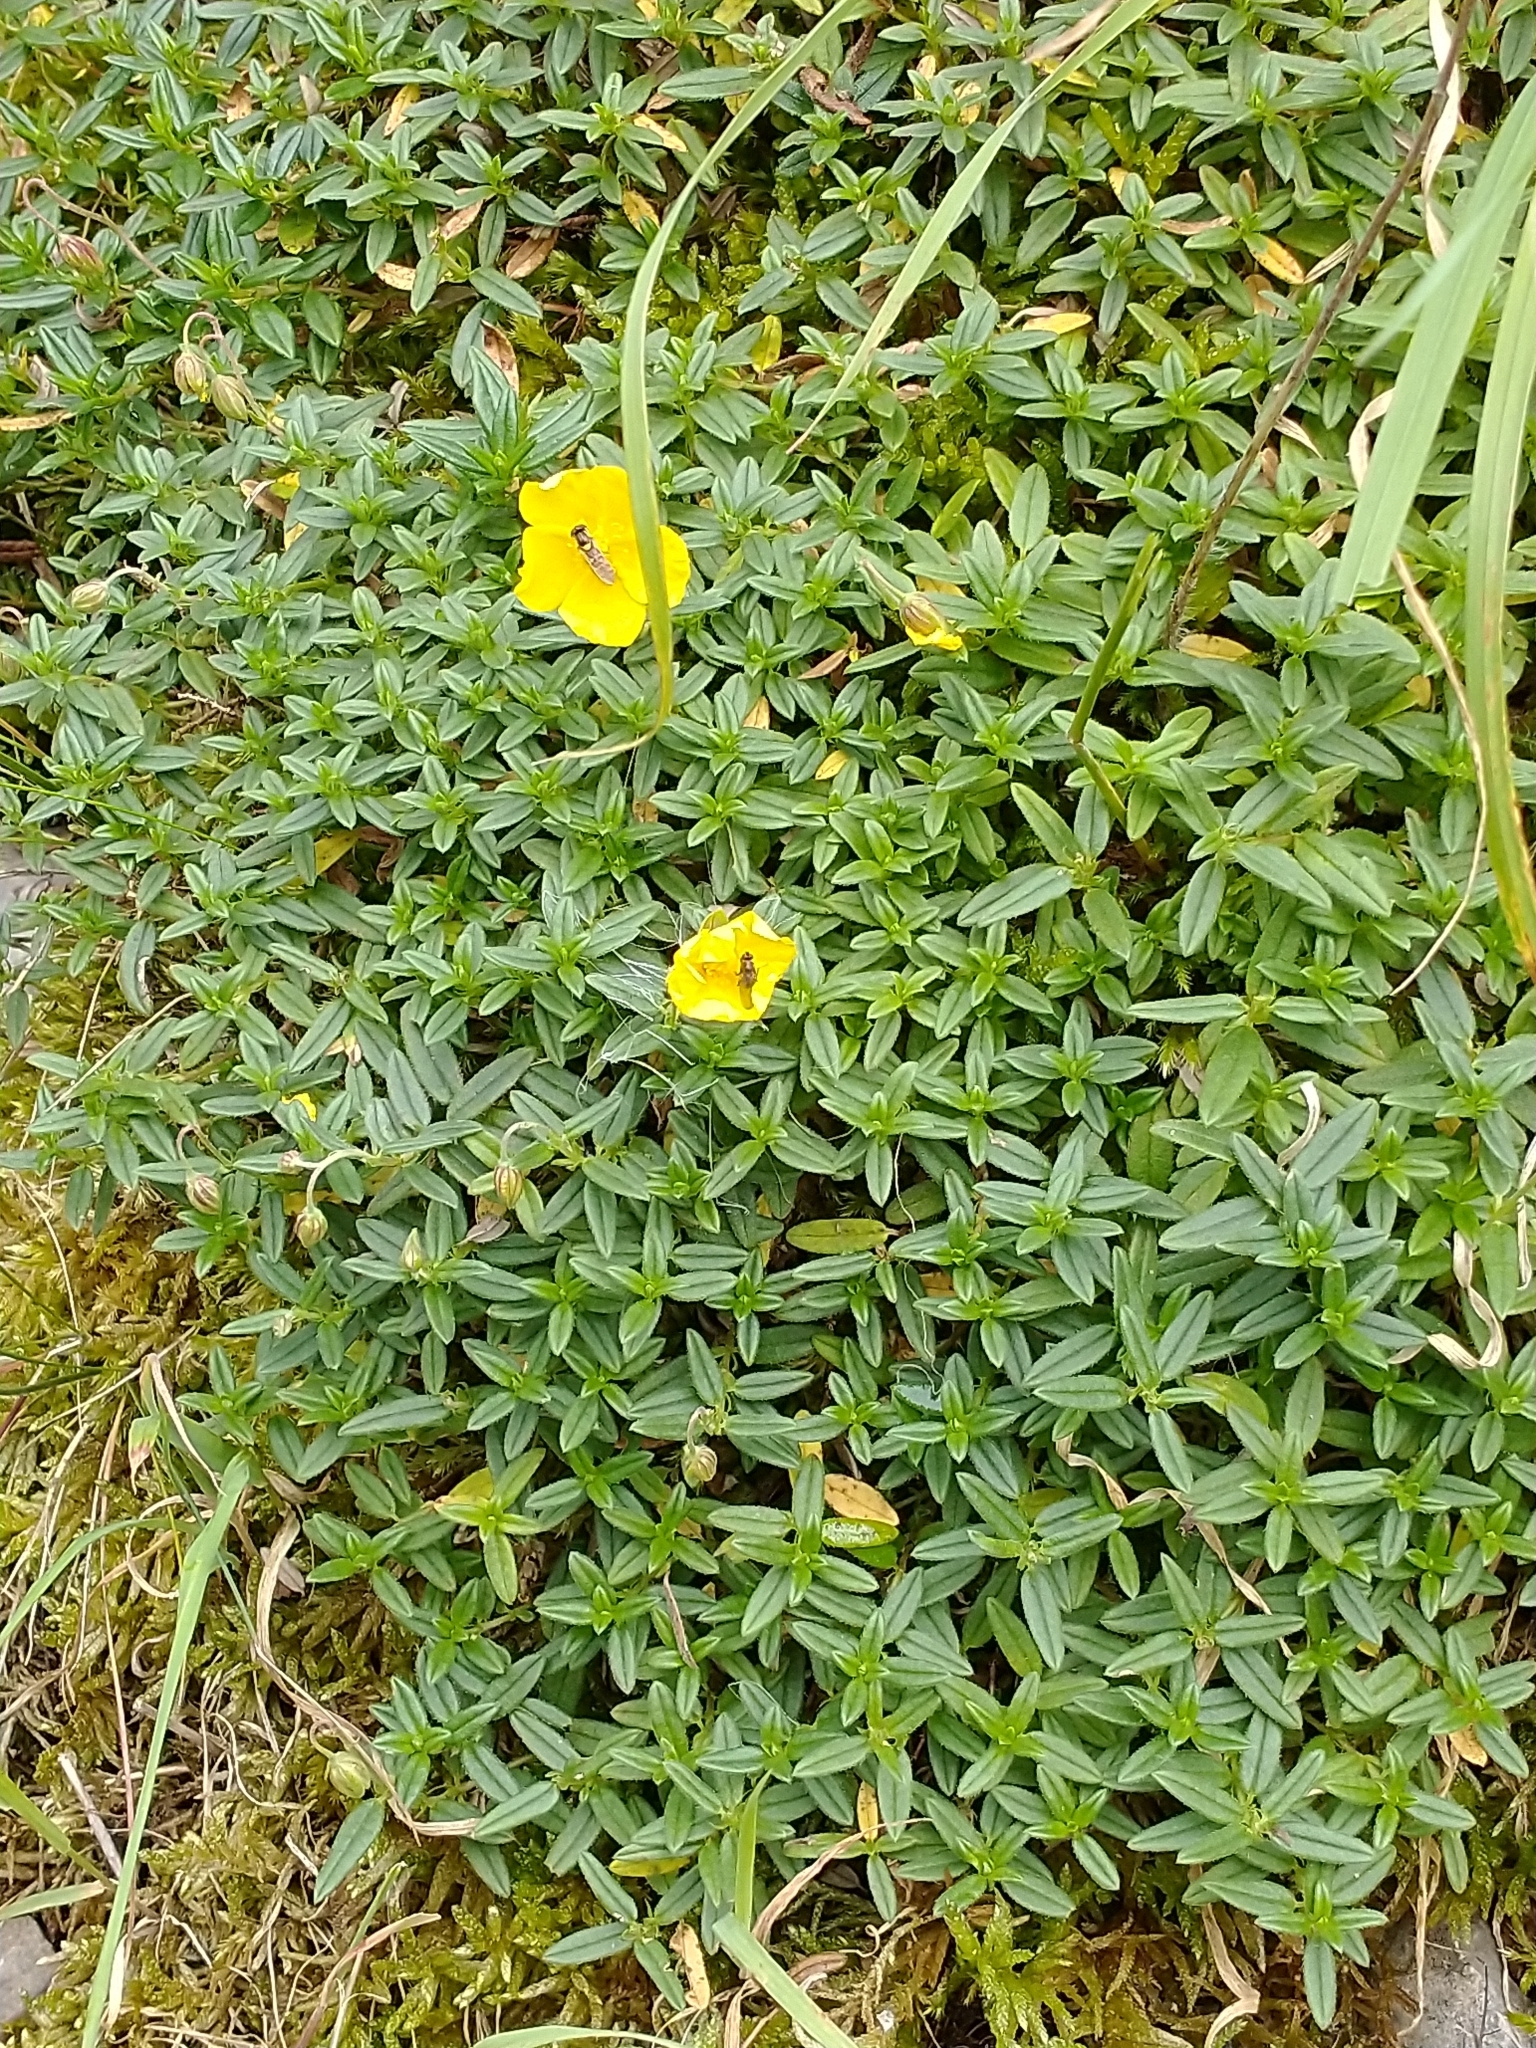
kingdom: Plantae
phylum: Tracheophyta
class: Magnoliopsida
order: Malvales
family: Cistaceae
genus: Helianthemum
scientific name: Helianthemum nummularium
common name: Common rock-rose
